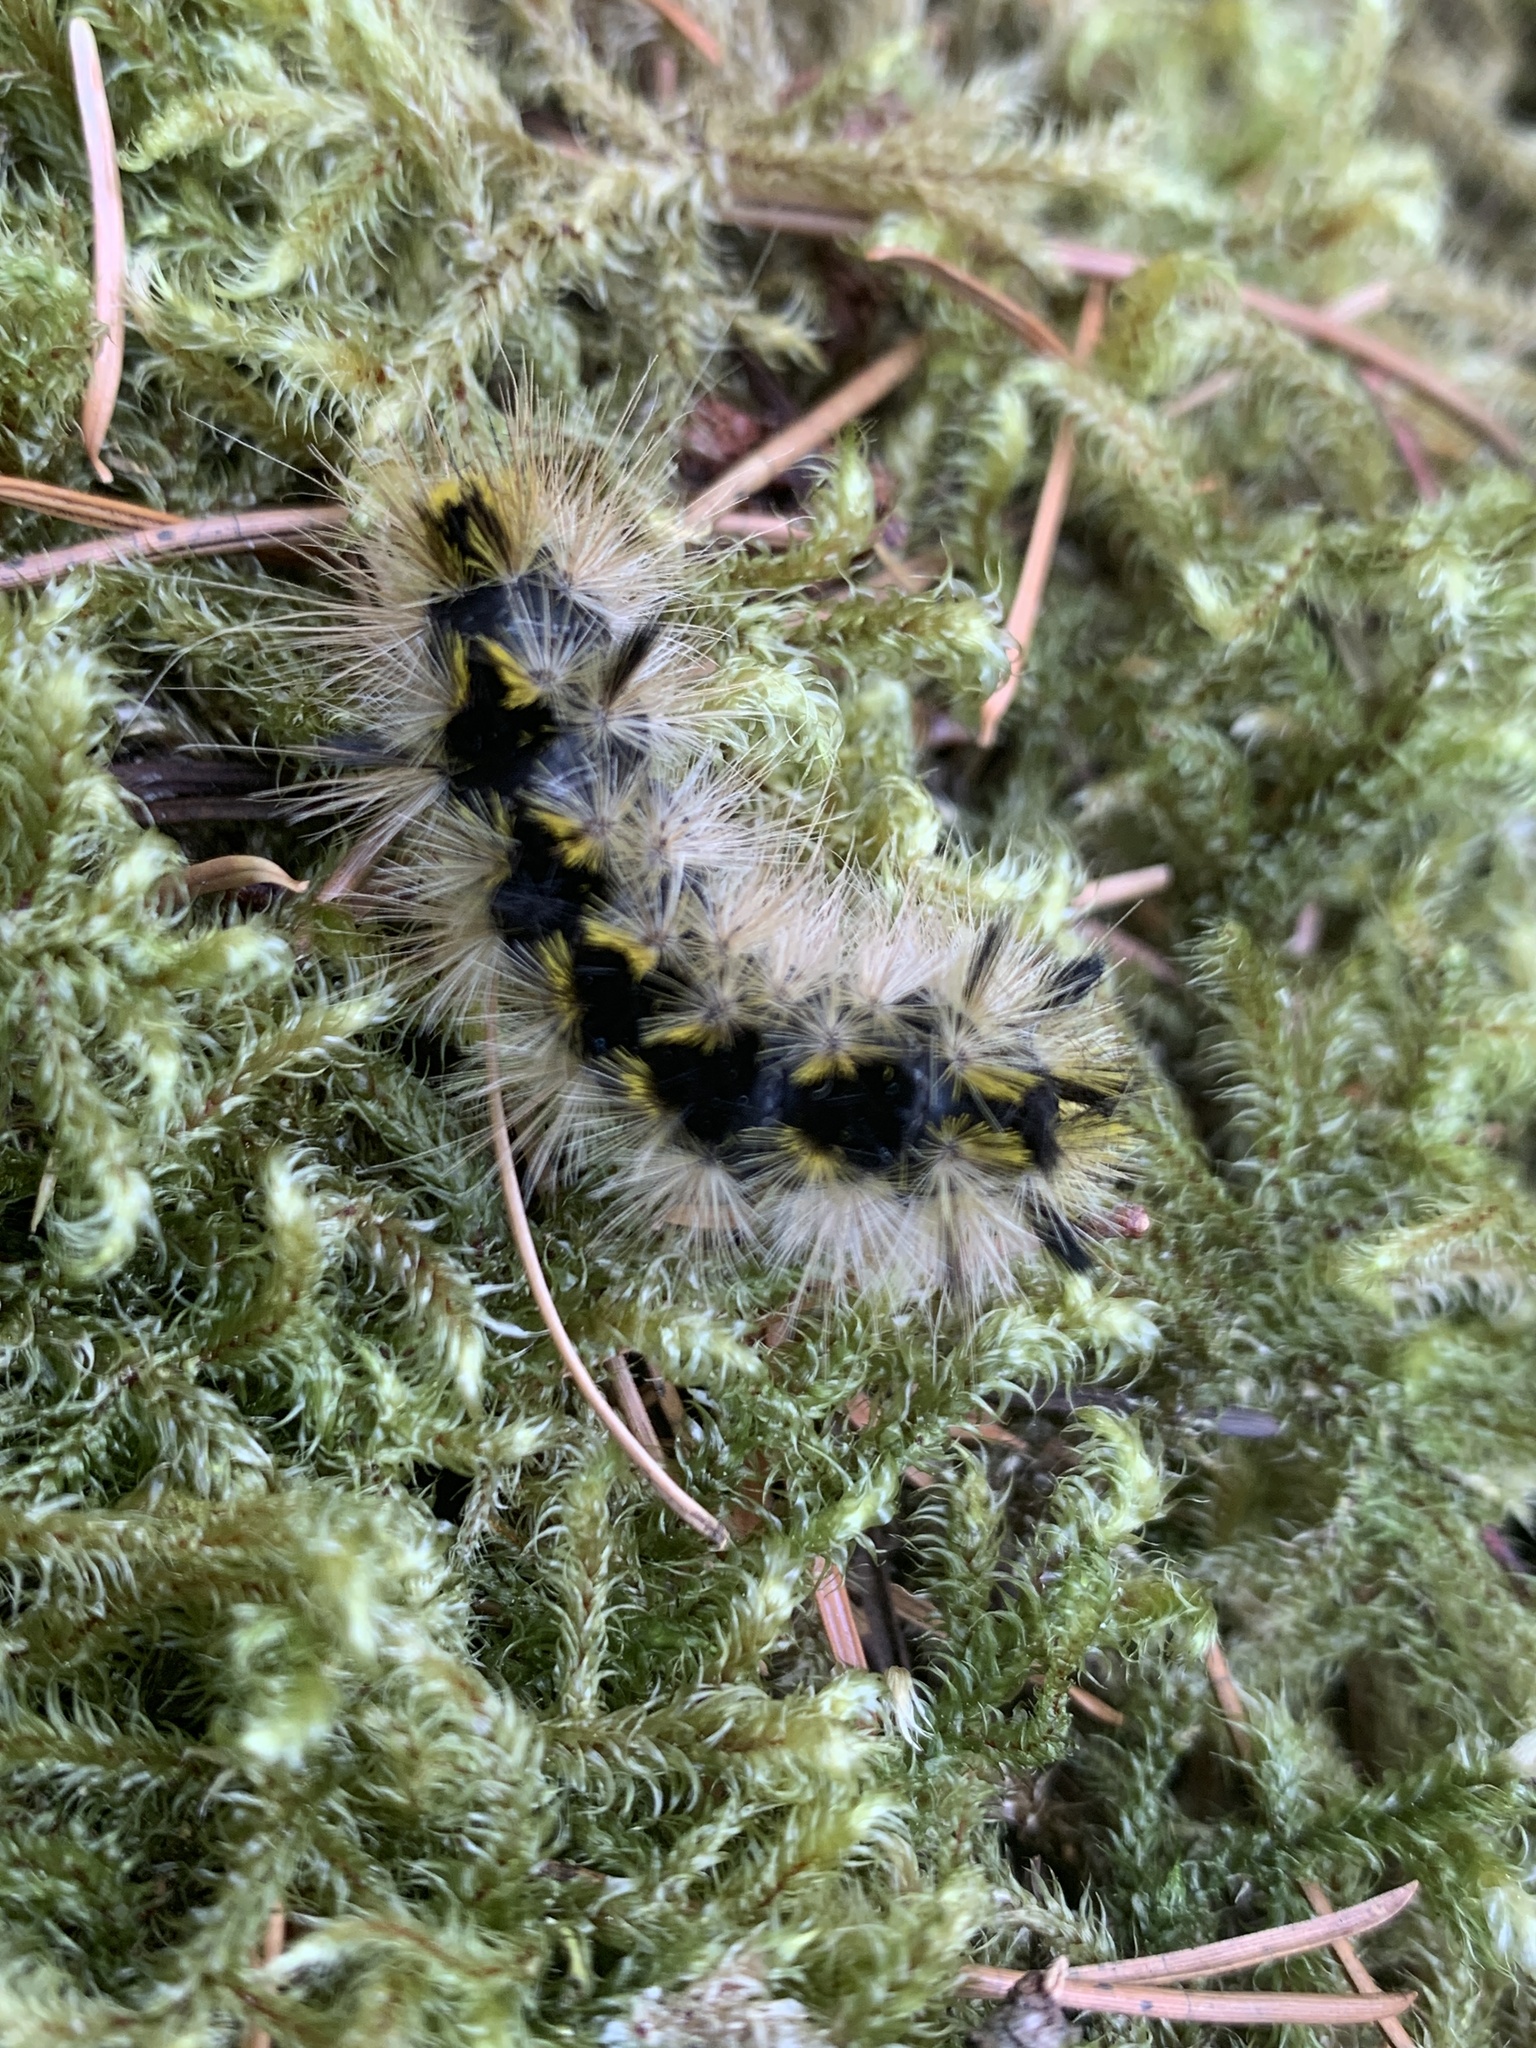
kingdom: Animalia
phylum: Arthropoda
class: Insecta
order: Lepidoptera
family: Erebidae
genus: Lophocampa
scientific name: Lophocampa argentata
